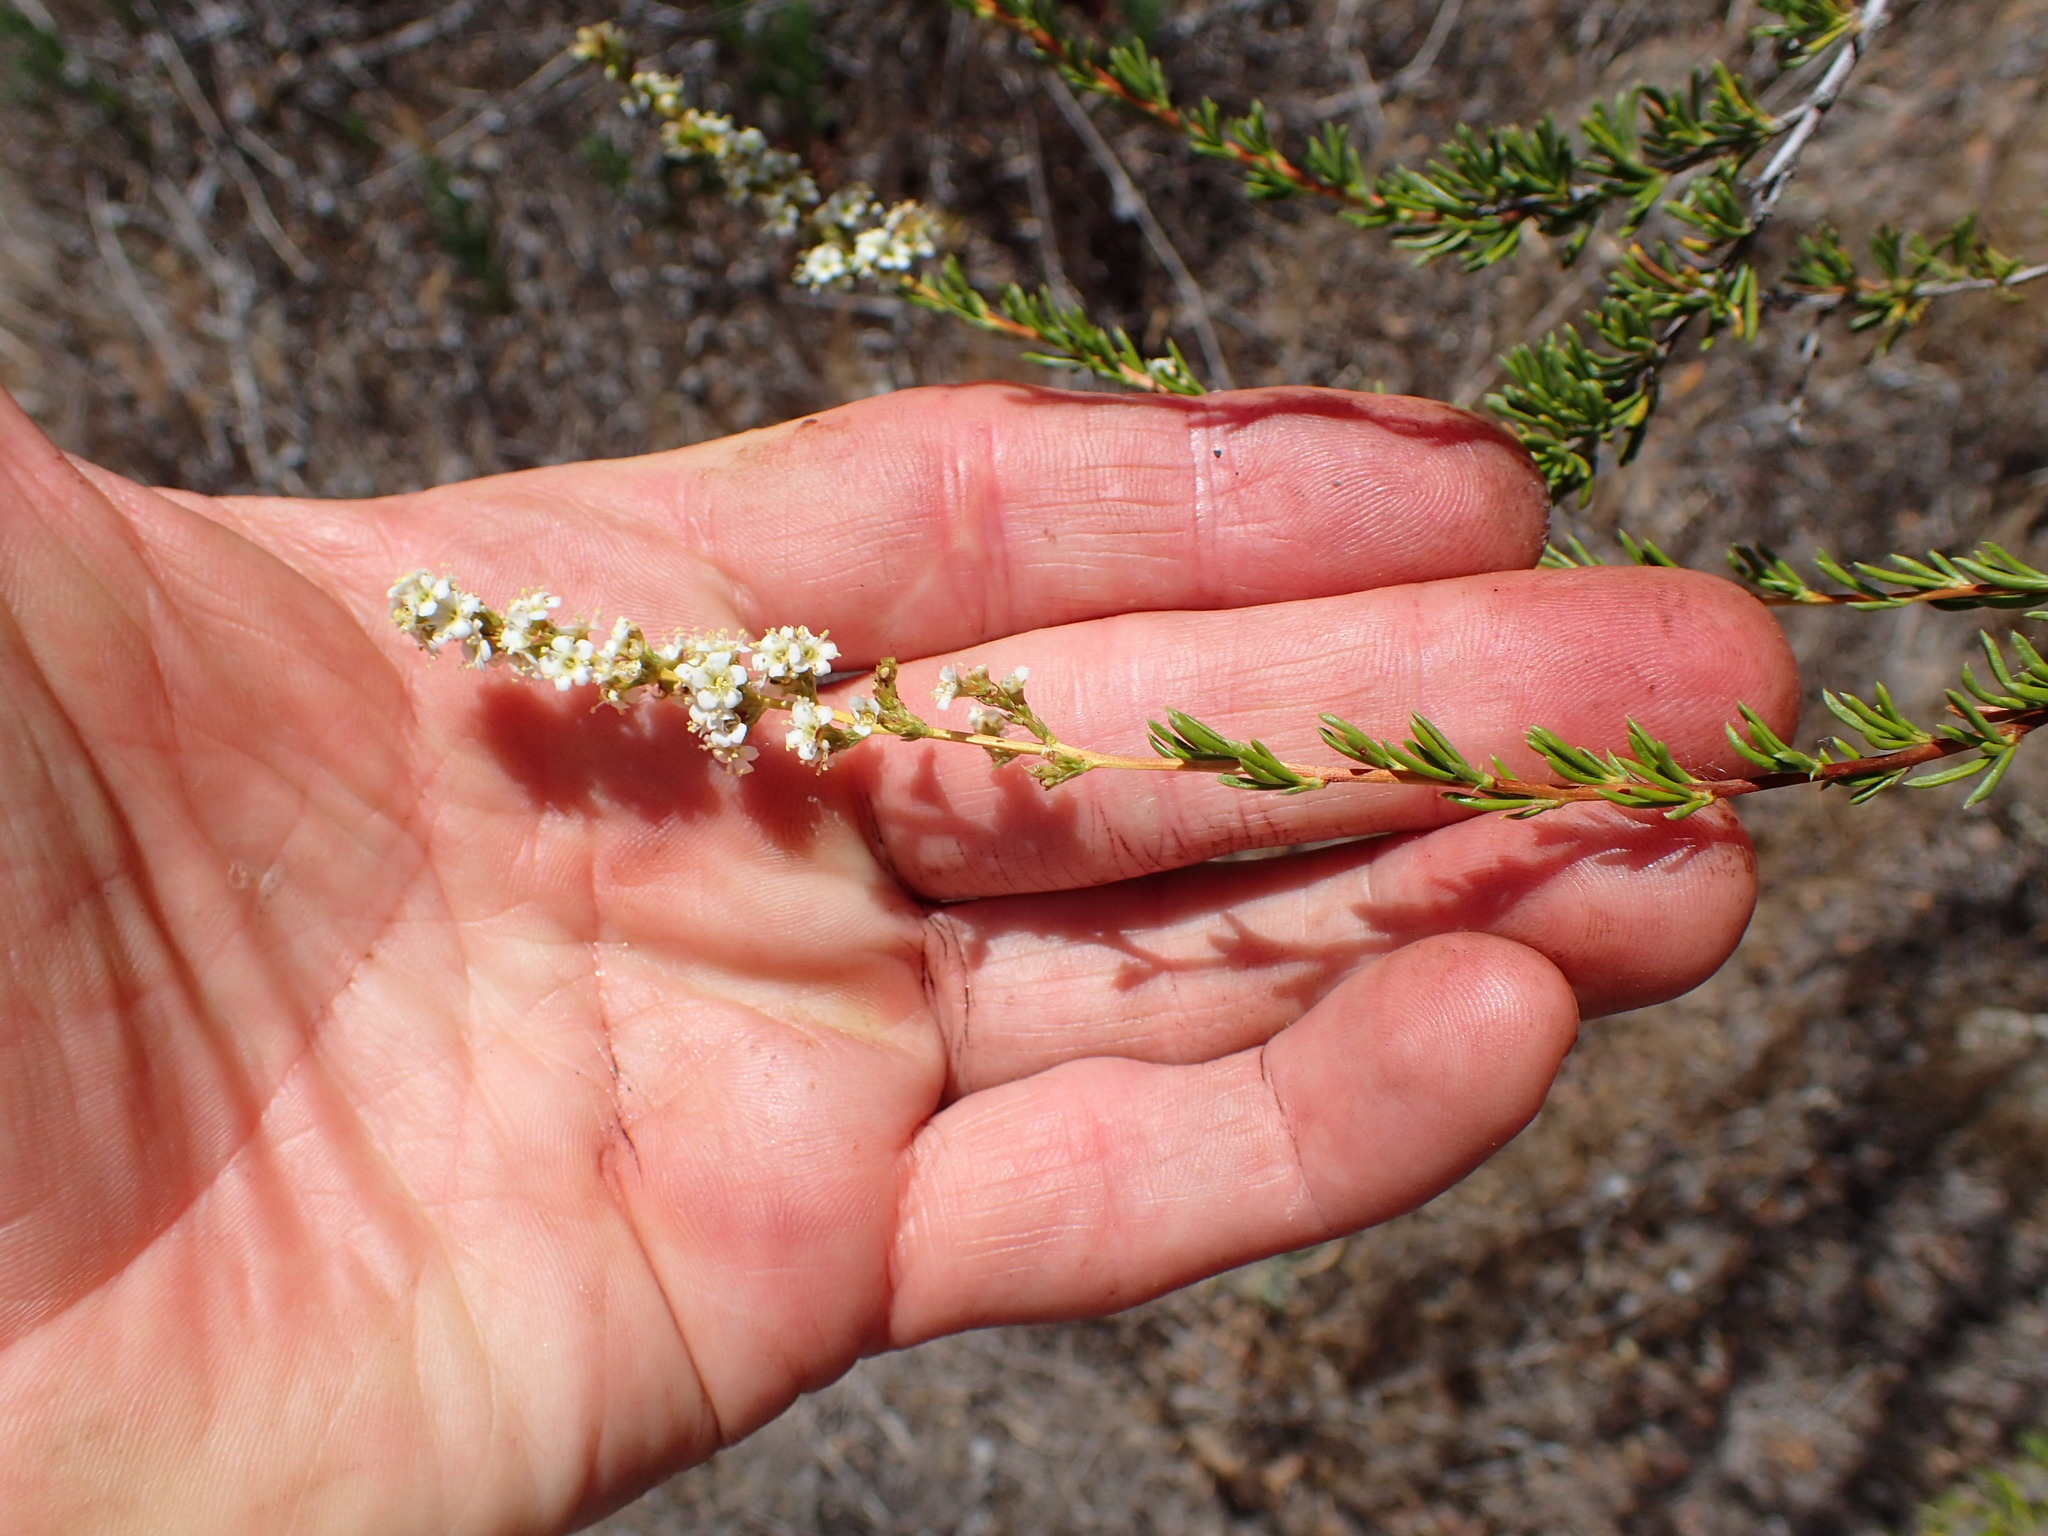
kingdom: Plantae
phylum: Tracheophyta
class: Magnoliopsida
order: Rosales
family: Rosaceae
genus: Adenostoma
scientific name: Adenostoma fasciculatum
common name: Chamise
